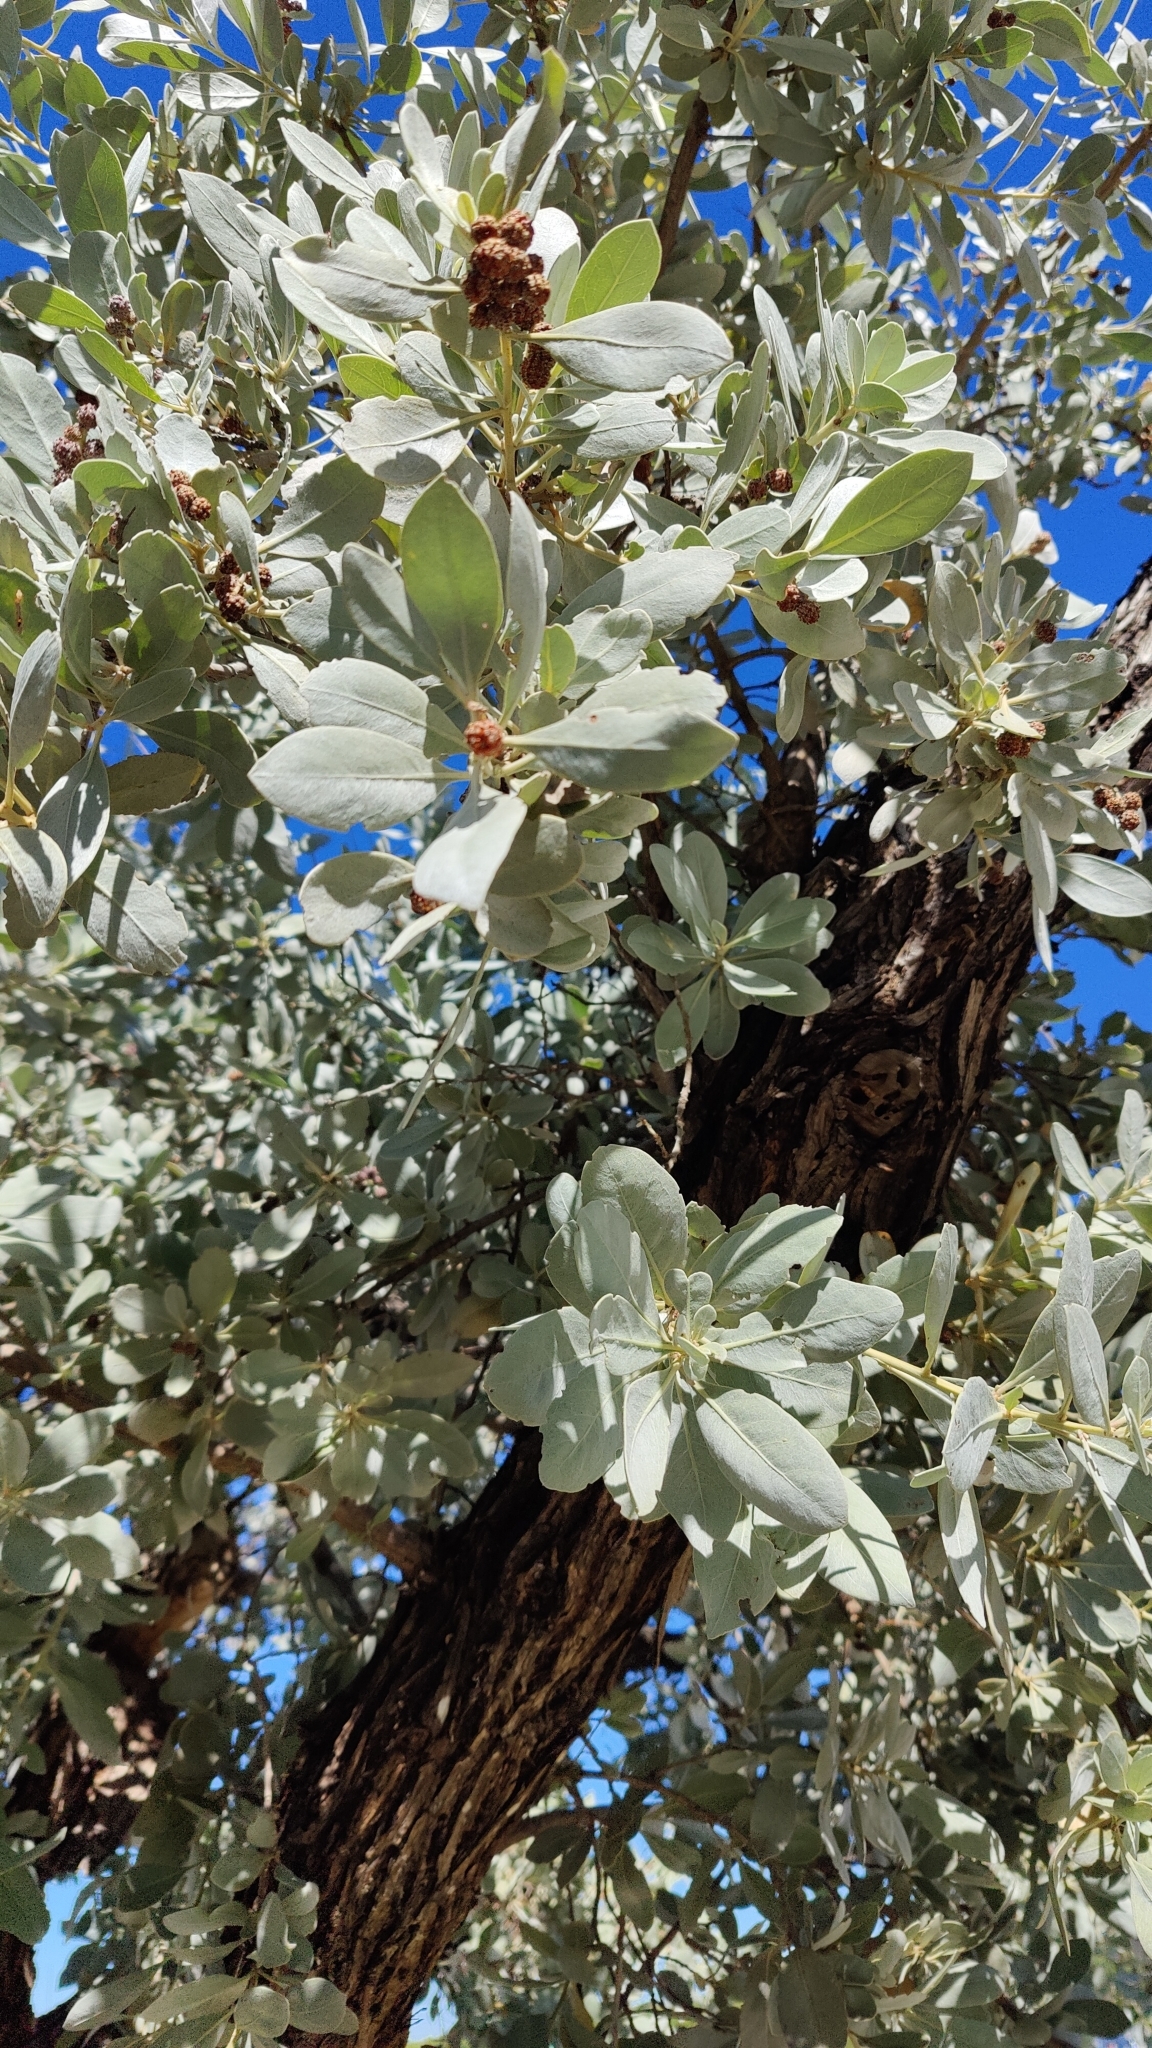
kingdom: Plantae
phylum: Tracheophyta
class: Magnoliopsida
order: Myrtales
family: Combretaceae
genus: Conocarpus
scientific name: Conocarpus erectus
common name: Button mangrove
